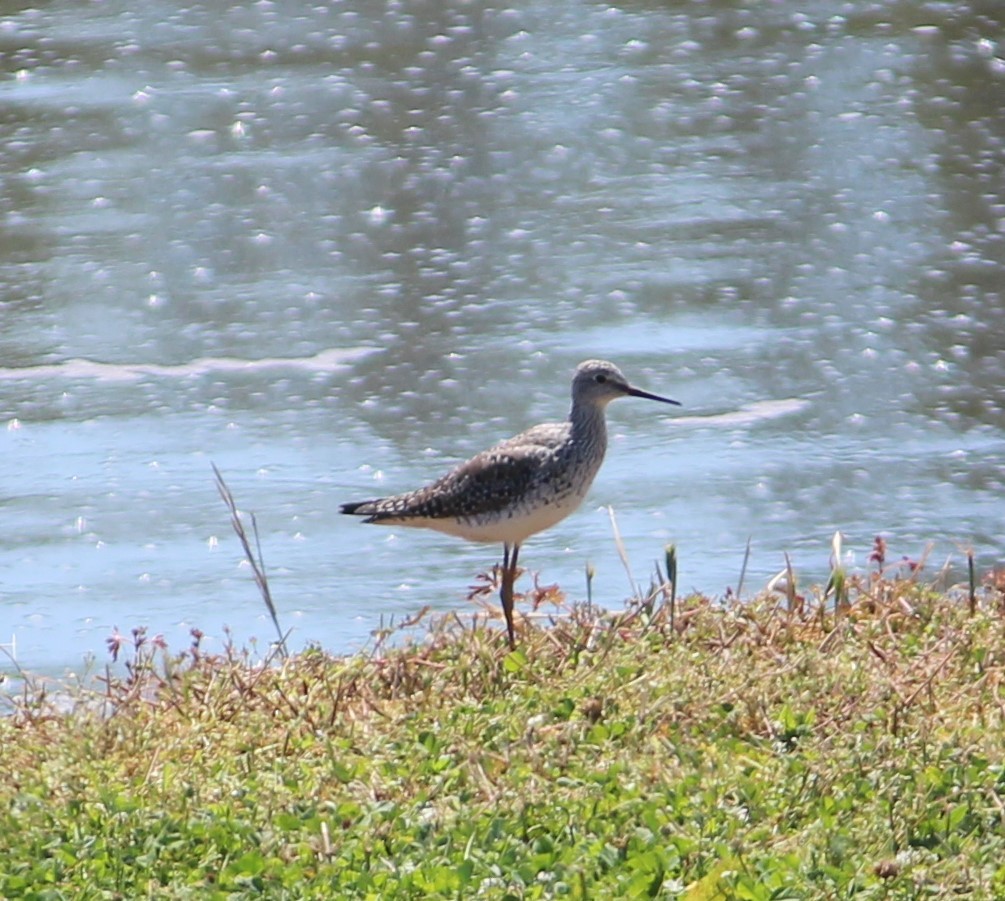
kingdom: Animalia
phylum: Chordata
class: Aves
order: Charadriiformes
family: Scolopacidae
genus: Tringa
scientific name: Tringa flavipes
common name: Lesser yellowlegs
